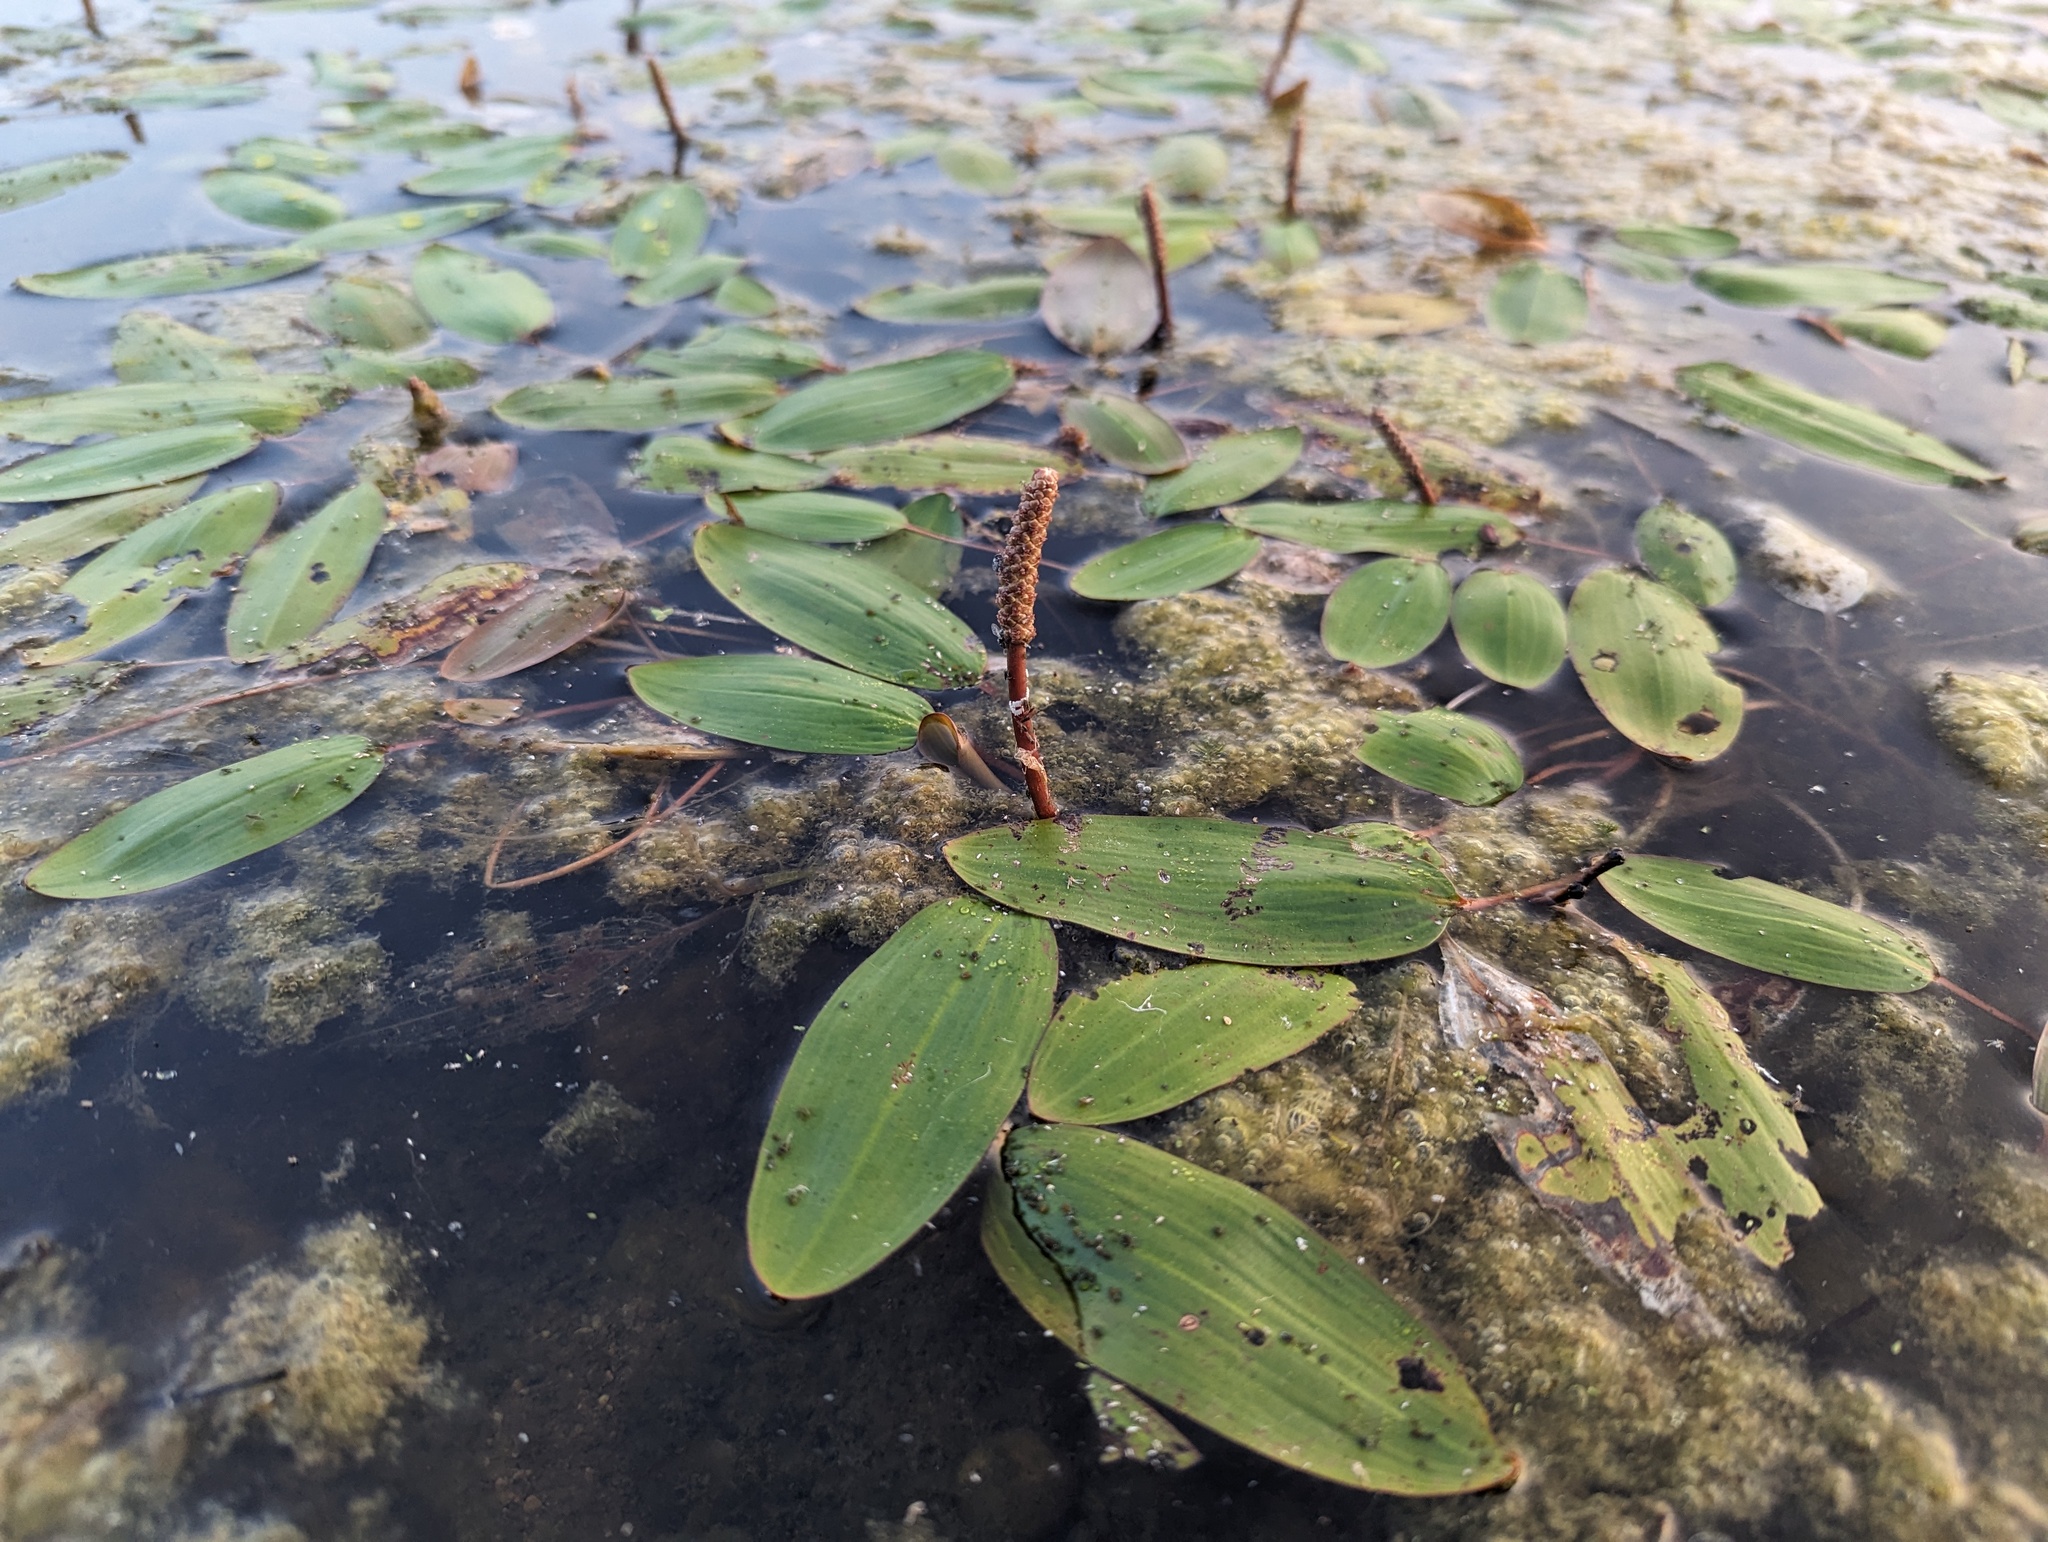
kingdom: Plantae
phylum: Tracheophyta
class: Liliopsida
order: Alismatales
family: Potamogetonaceae
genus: Potamogeton
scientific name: Potamogeton nodosus
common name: Loddon pondweed
